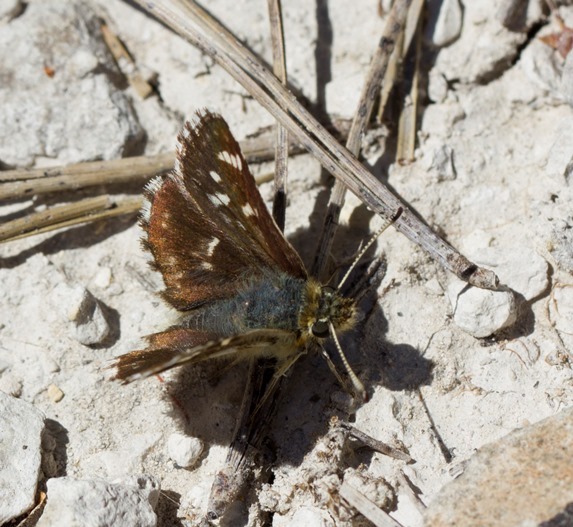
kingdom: Animalia
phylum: Arthropoda
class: Insecta
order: Lepidoptera
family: Hesperiidae
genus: Spialia
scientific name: Spialia sertorius
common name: Red underwing skipper
